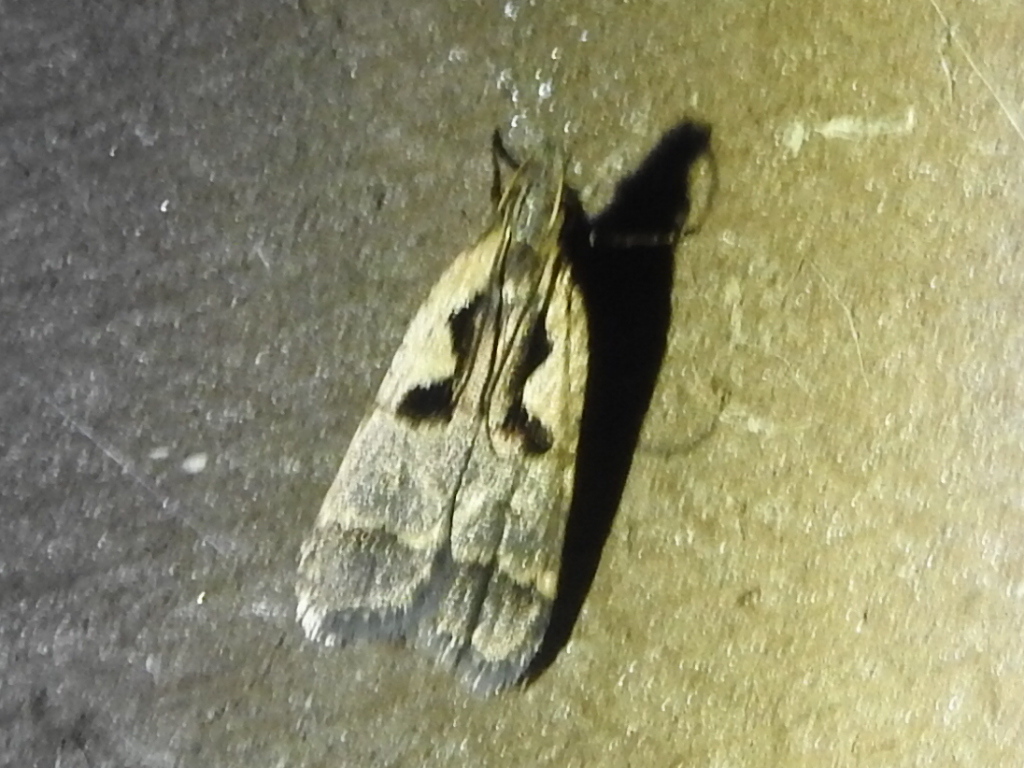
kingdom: Animalia
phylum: Arthropoda
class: Insecta
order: Lepidoptera
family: Gelechiidae
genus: Dichomeris
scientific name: Dichomeris setosella
